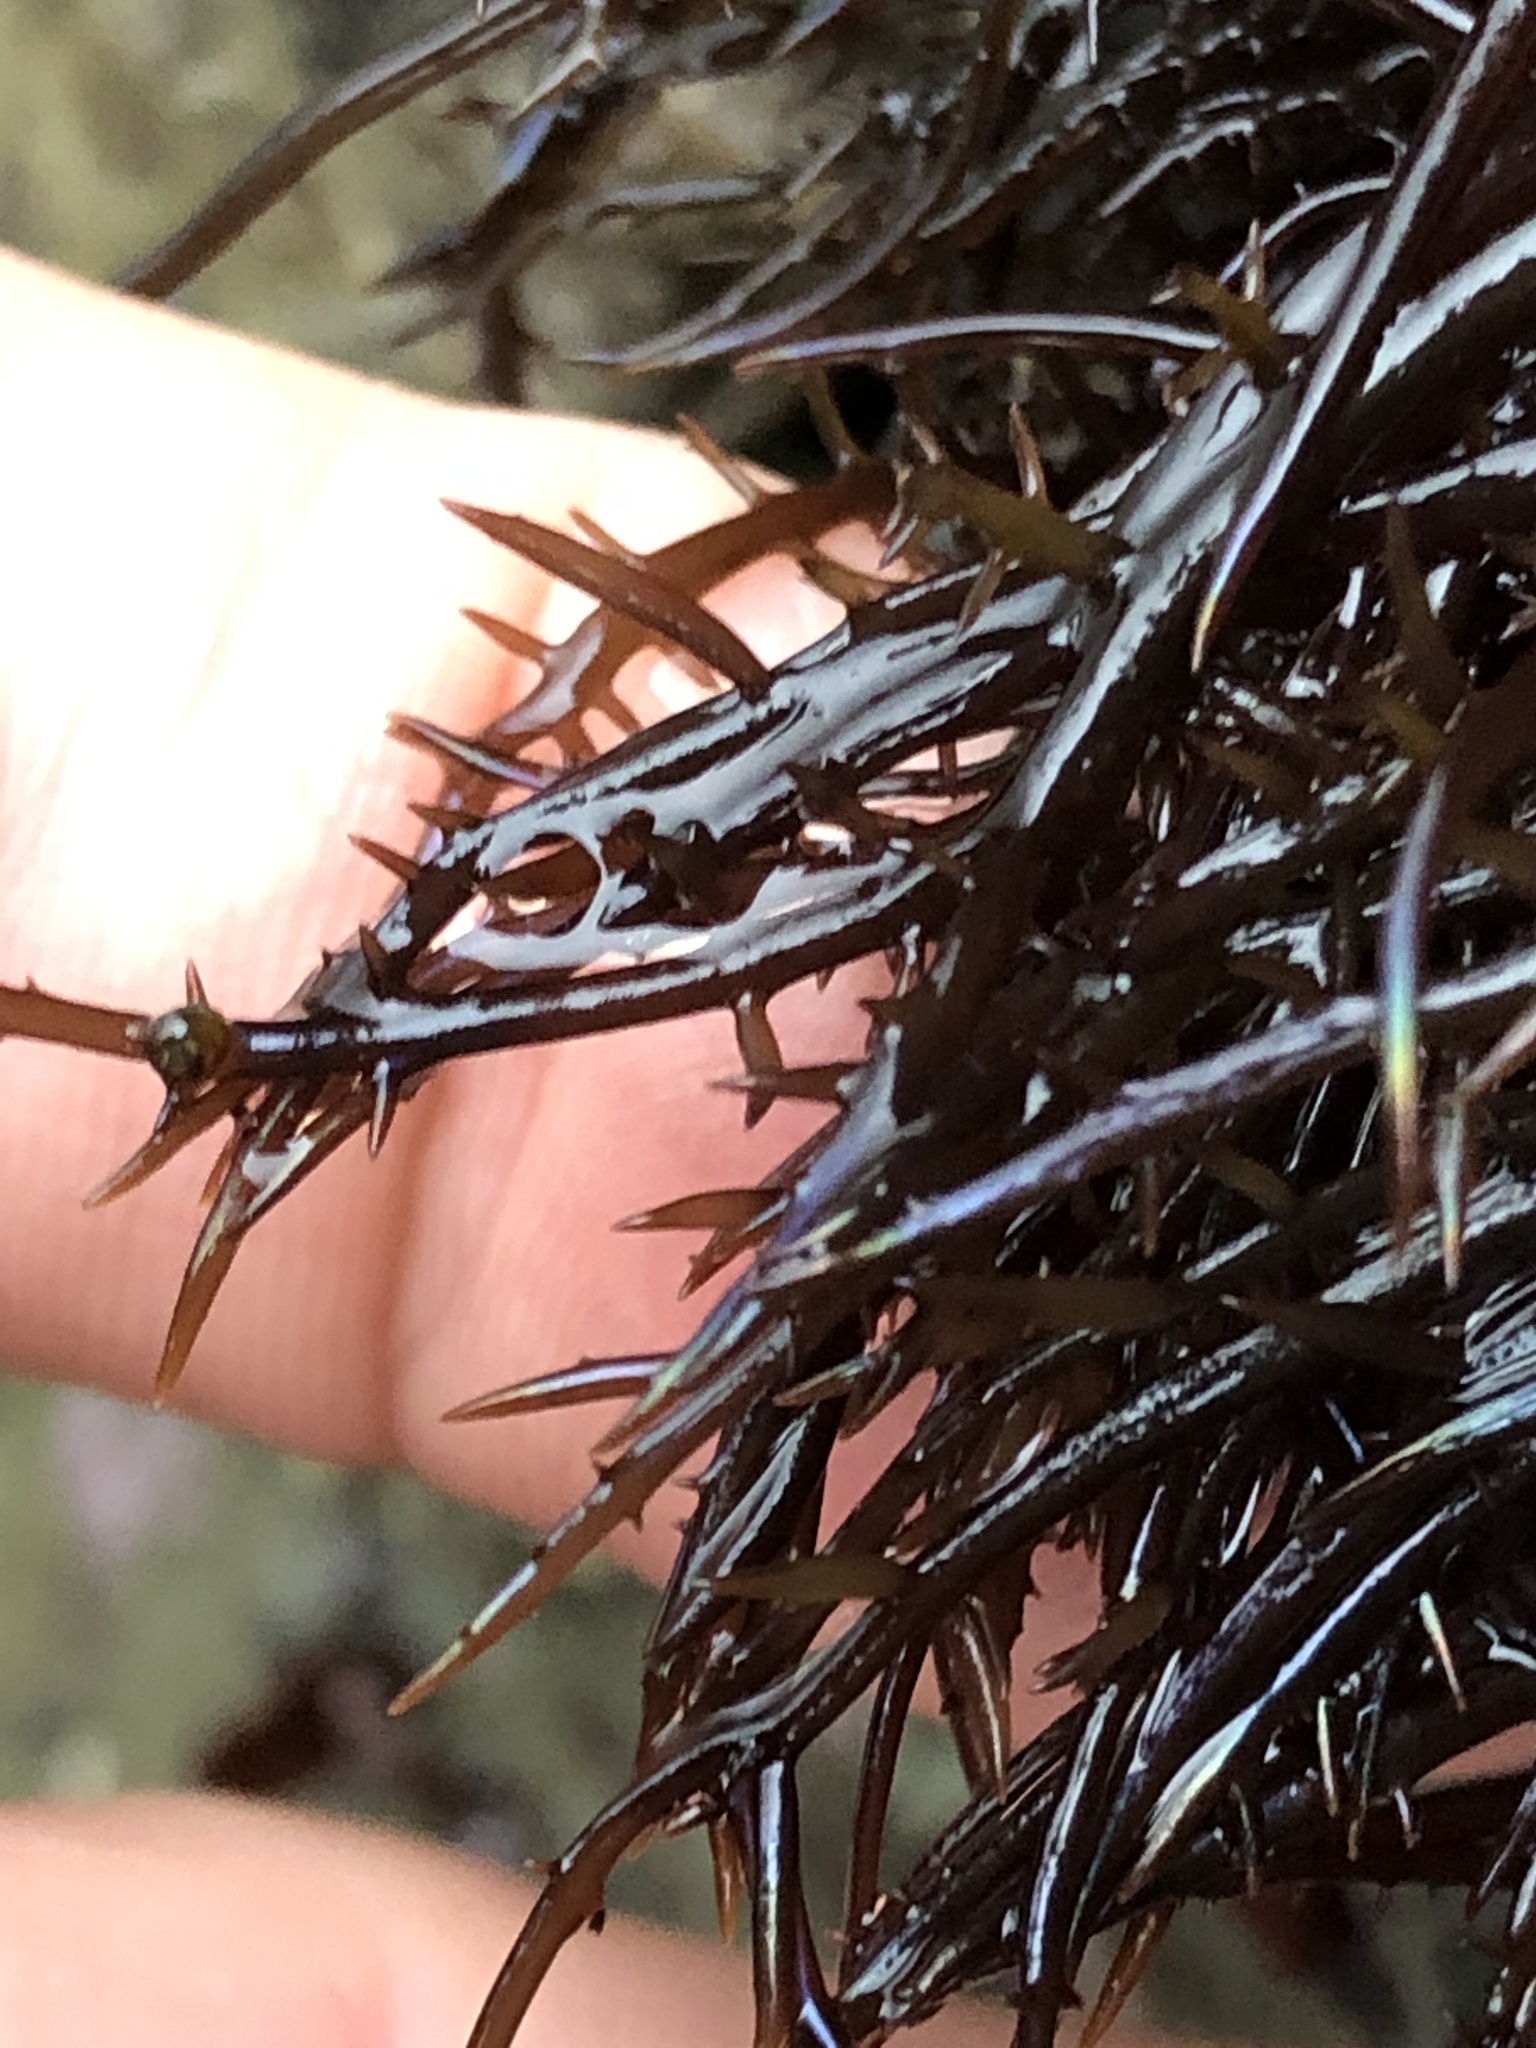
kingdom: Plantae
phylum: Rhodophyta
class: Florideophyceae
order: Gigartinales
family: Gigartinaceae
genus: Chondracanthus
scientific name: Chondracanthus canaliculatus
